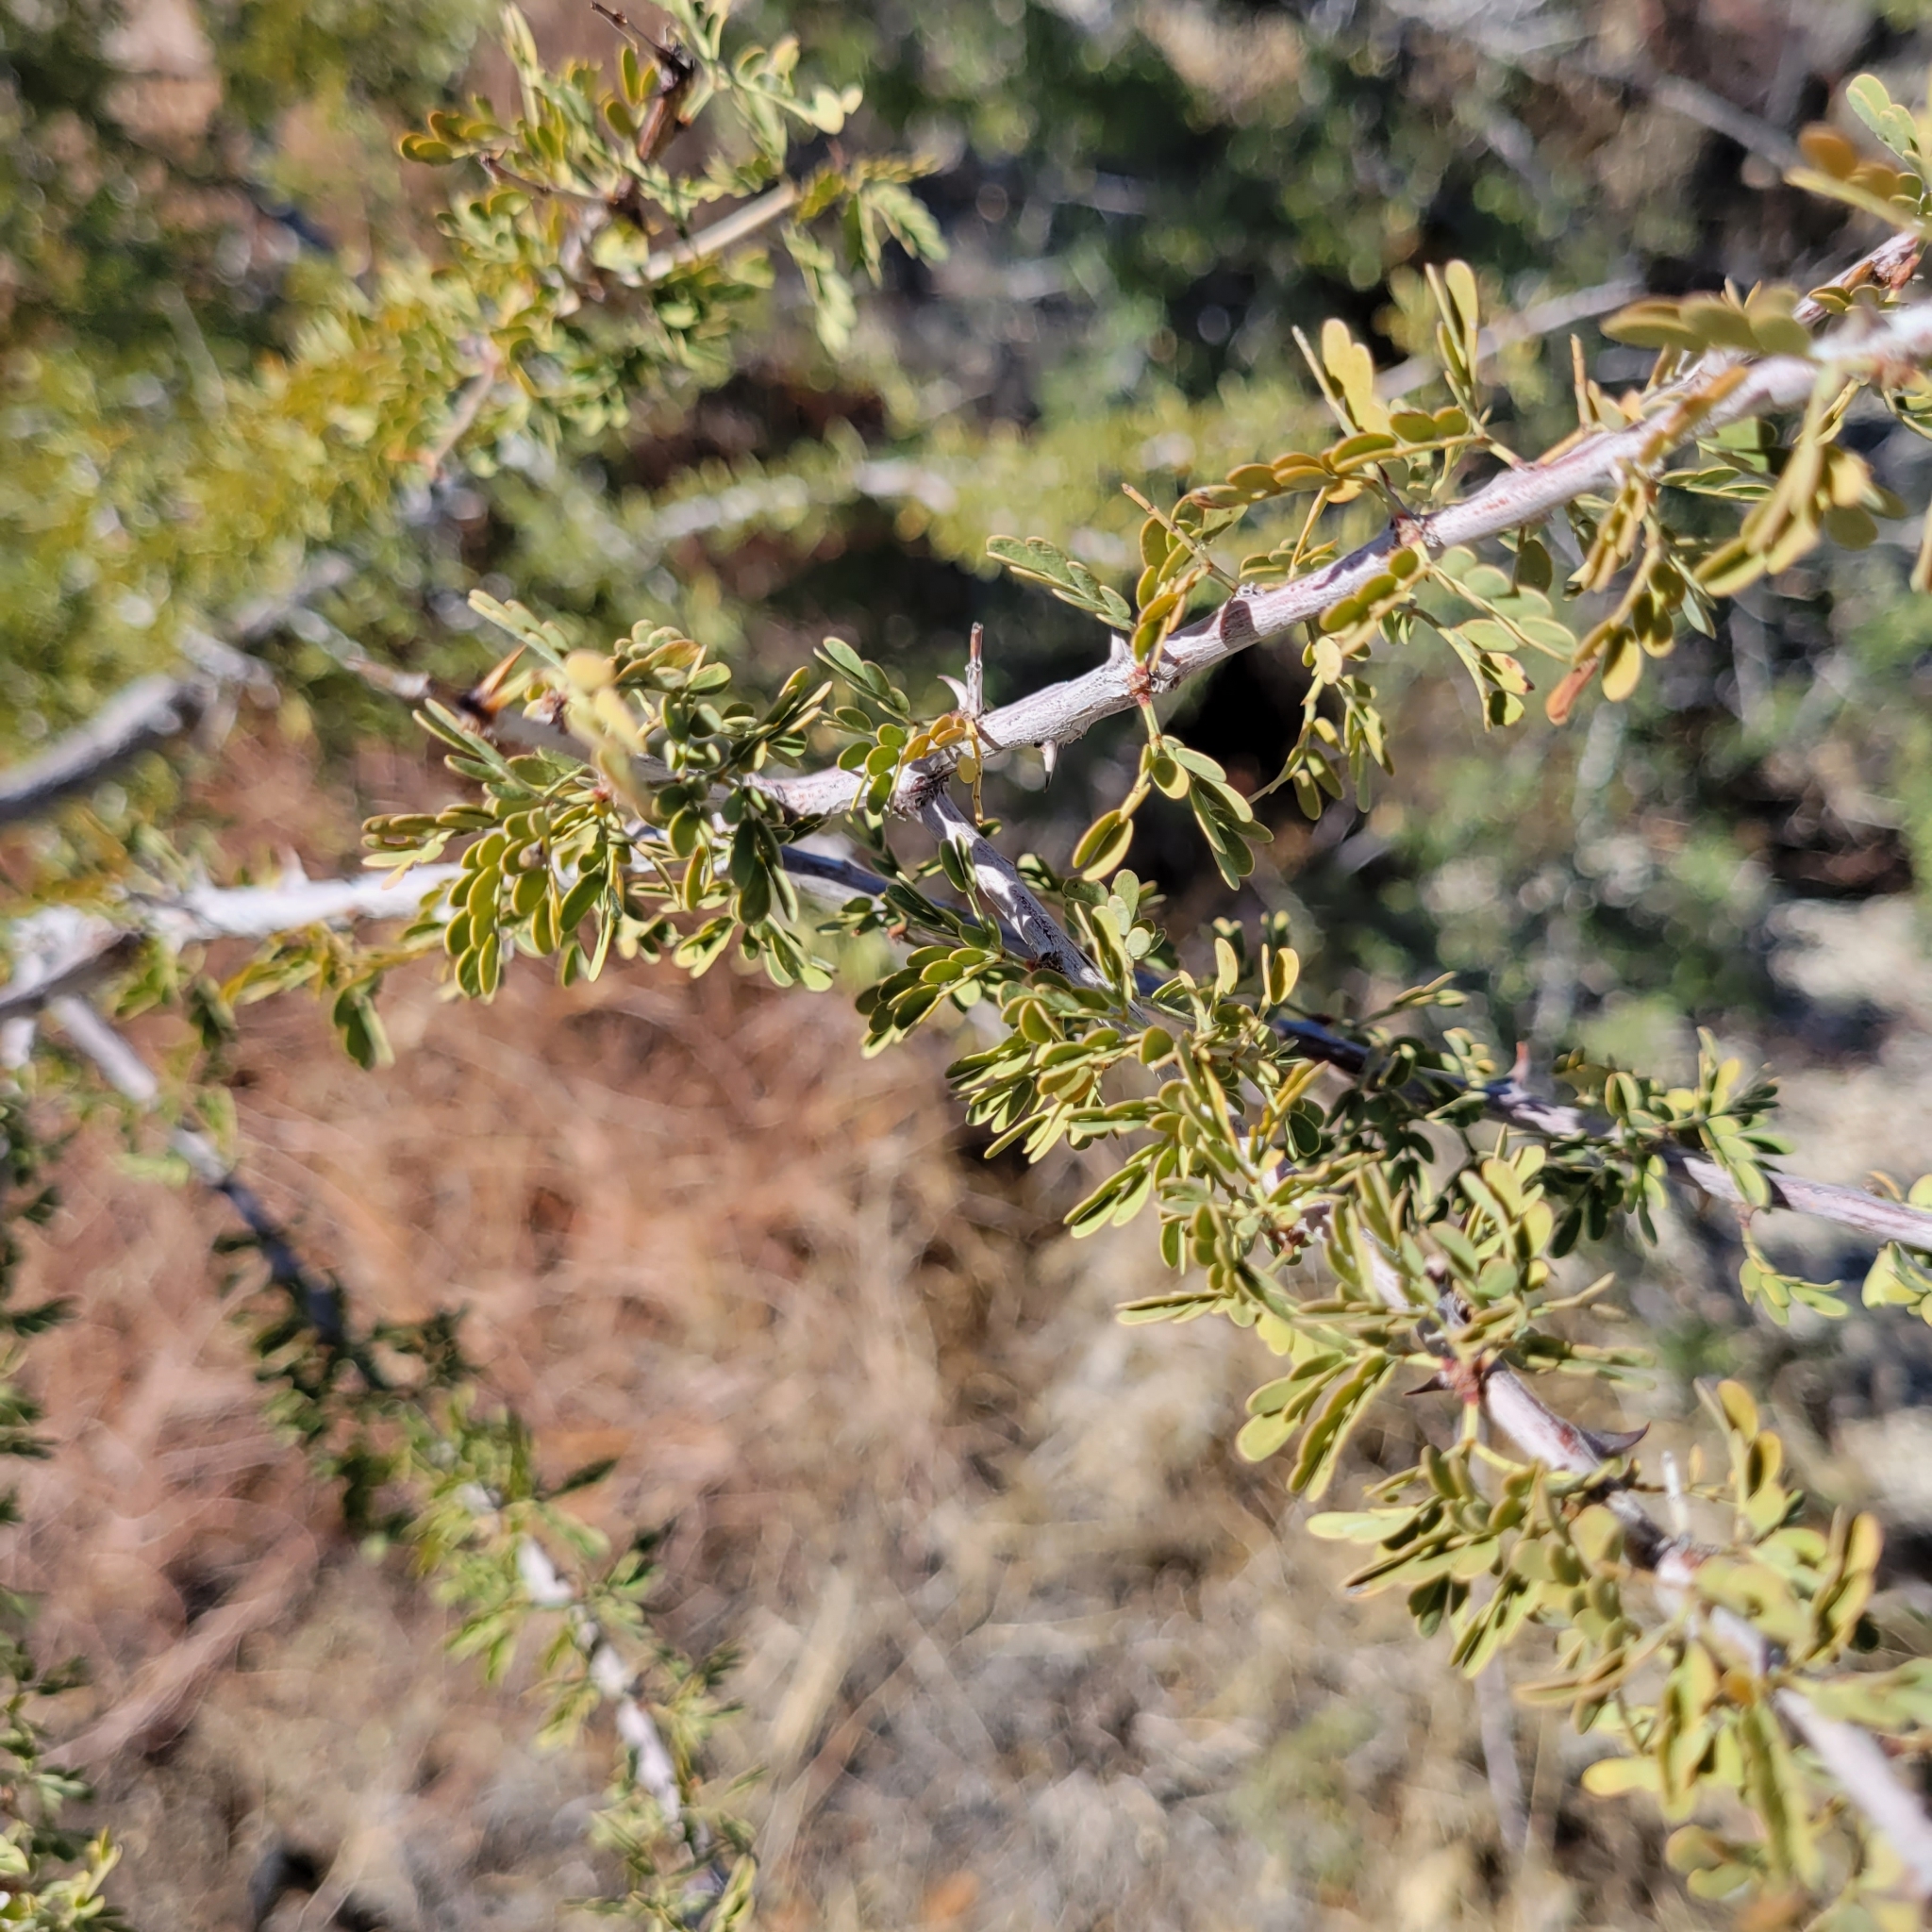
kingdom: Plantae
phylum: Tracheophyta
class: Magnoliopsida
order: Fabales
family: Fabaceae
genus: Senegalia
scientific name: Senegalia greggii
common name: Texas-mimosa
